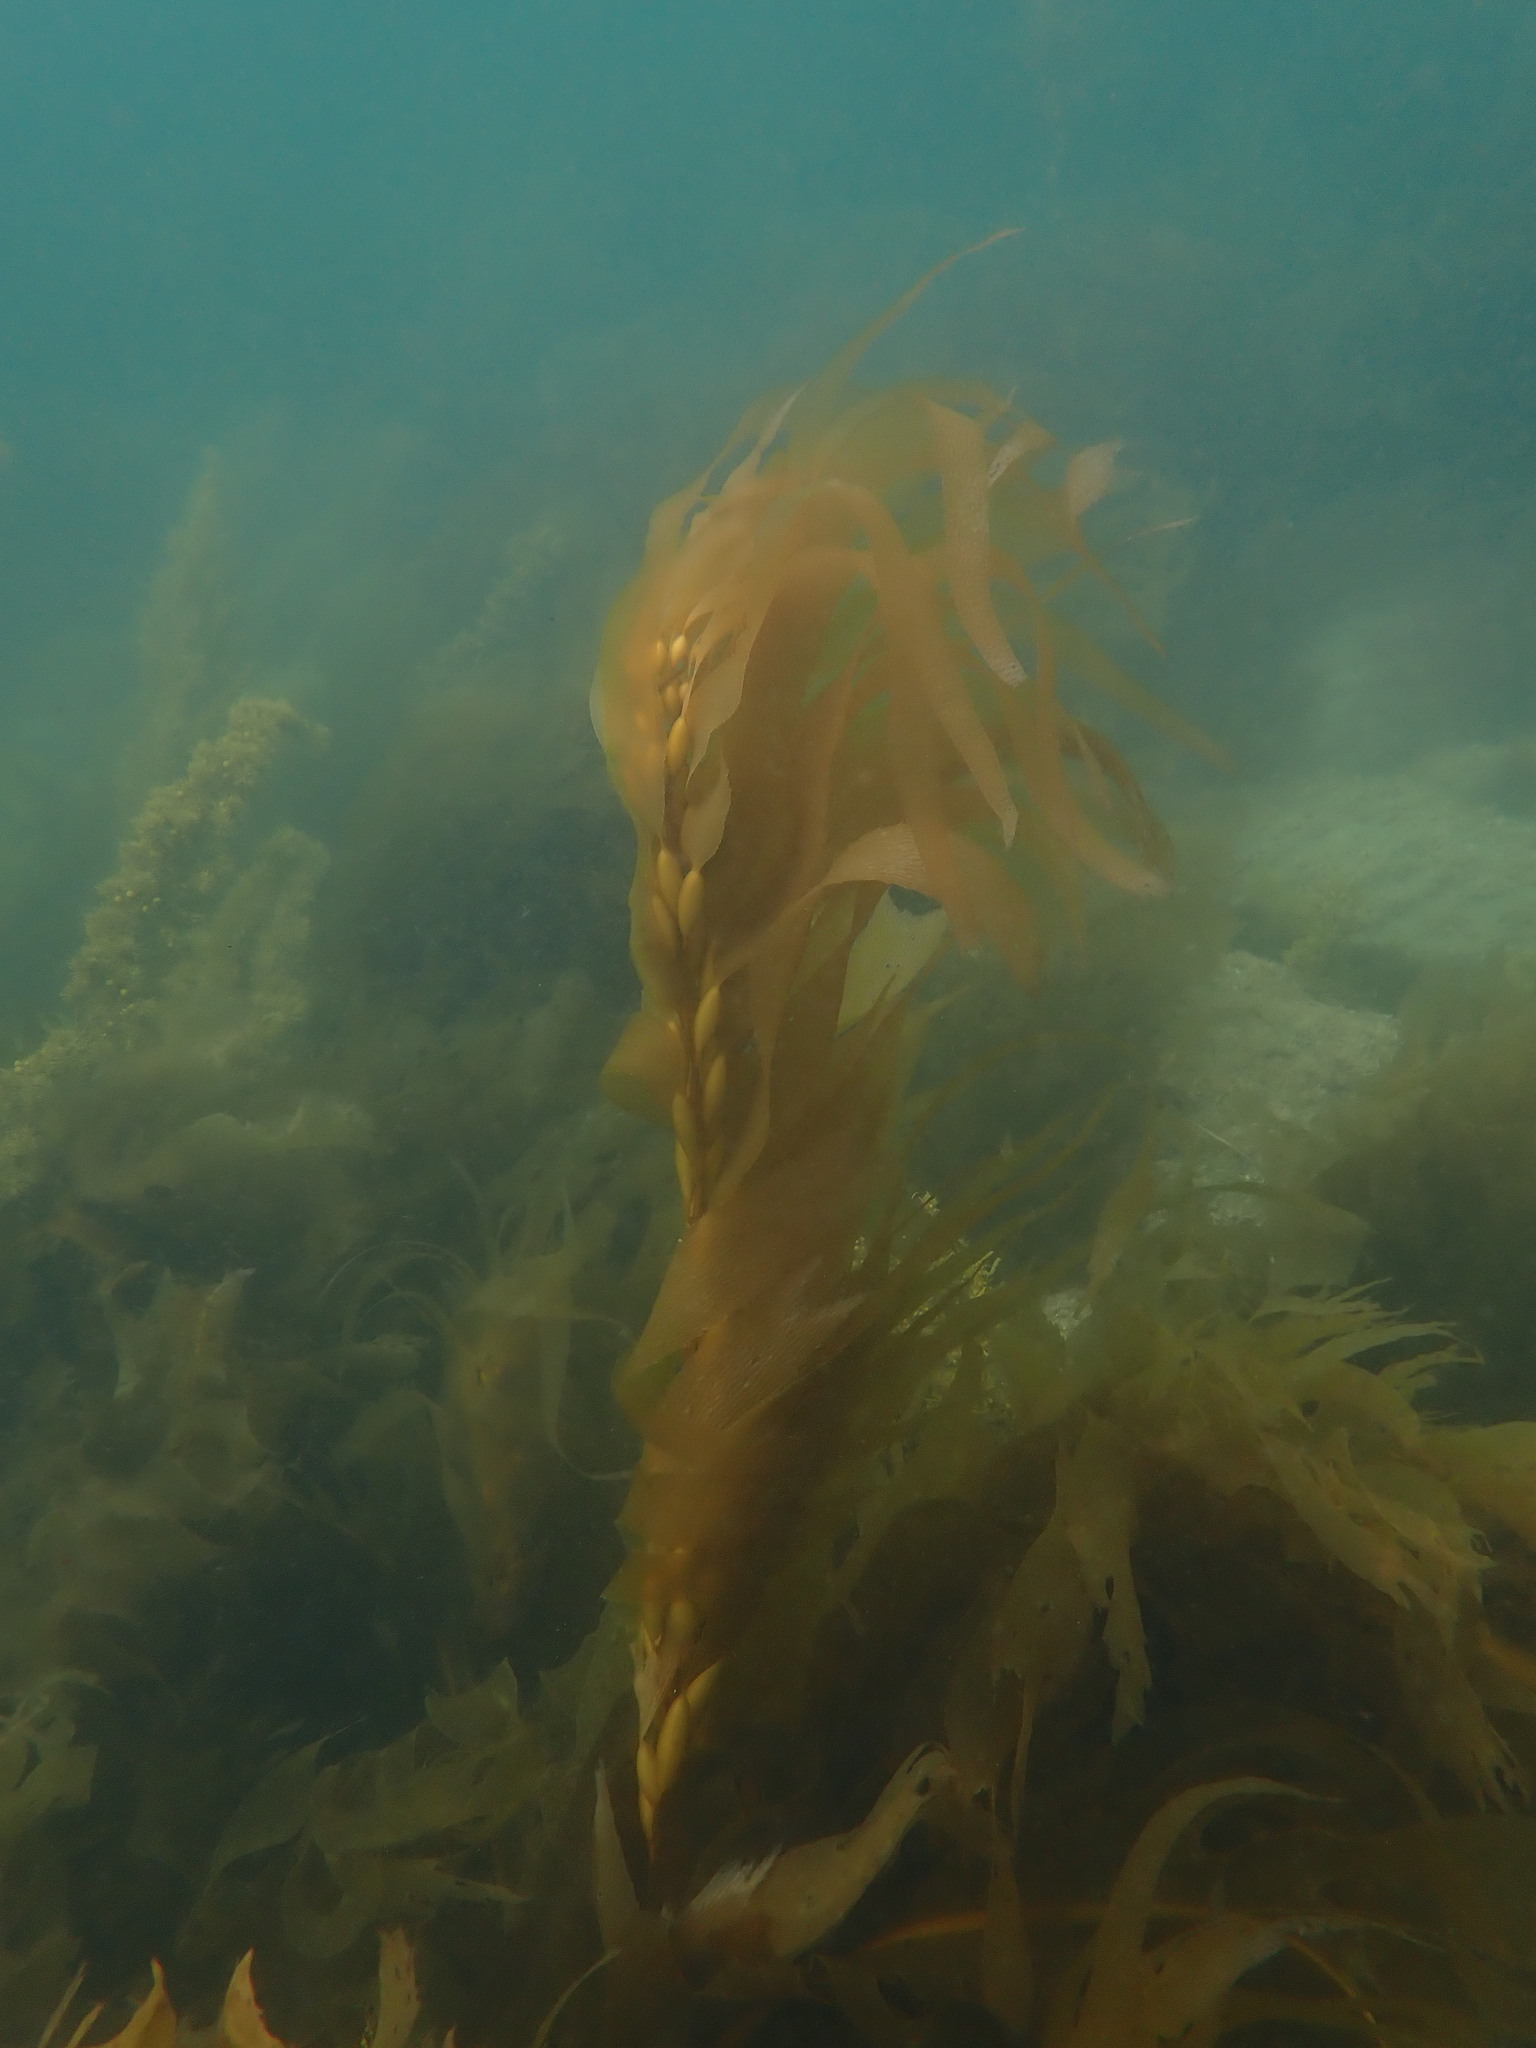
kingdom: Chromista
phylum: Ochrophyta
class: Phaeophyceae
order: Laminariales
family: Laminariaceae
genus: Macrocystis
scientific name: Macrocystis pyrifera
